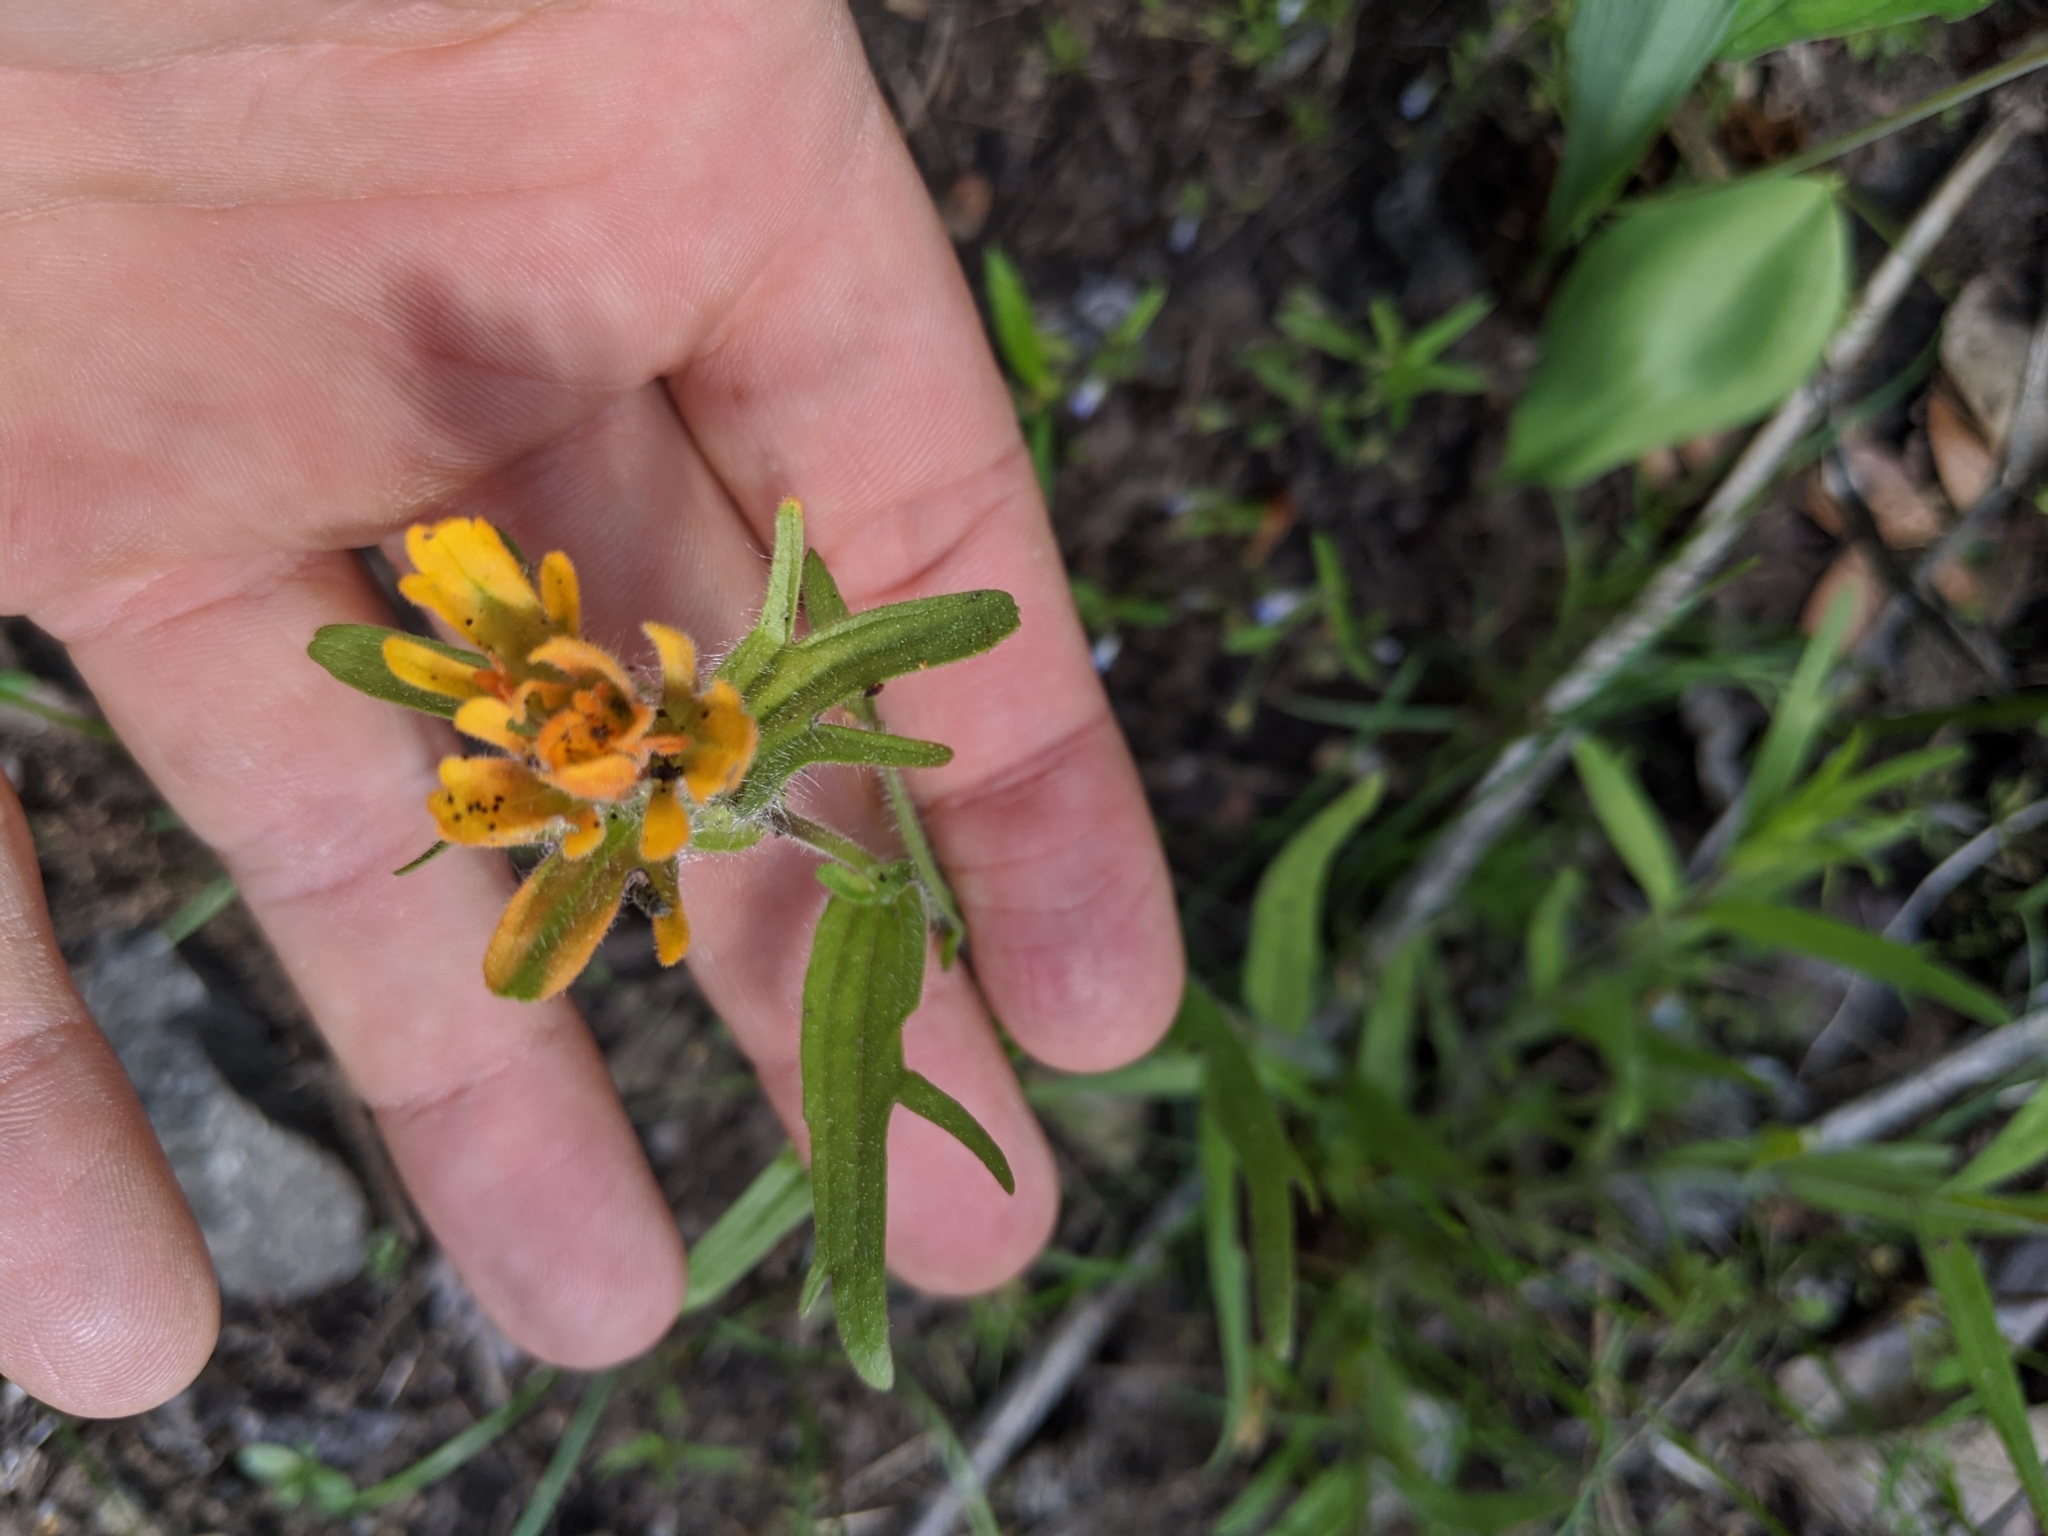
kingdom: Plantae
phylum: Tracheophyta
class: Magnoliopsida
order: Lamiales
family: Orobanchaceae
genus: Castilleja
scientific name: Castilleja hispida
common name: Bristly paintbrush
